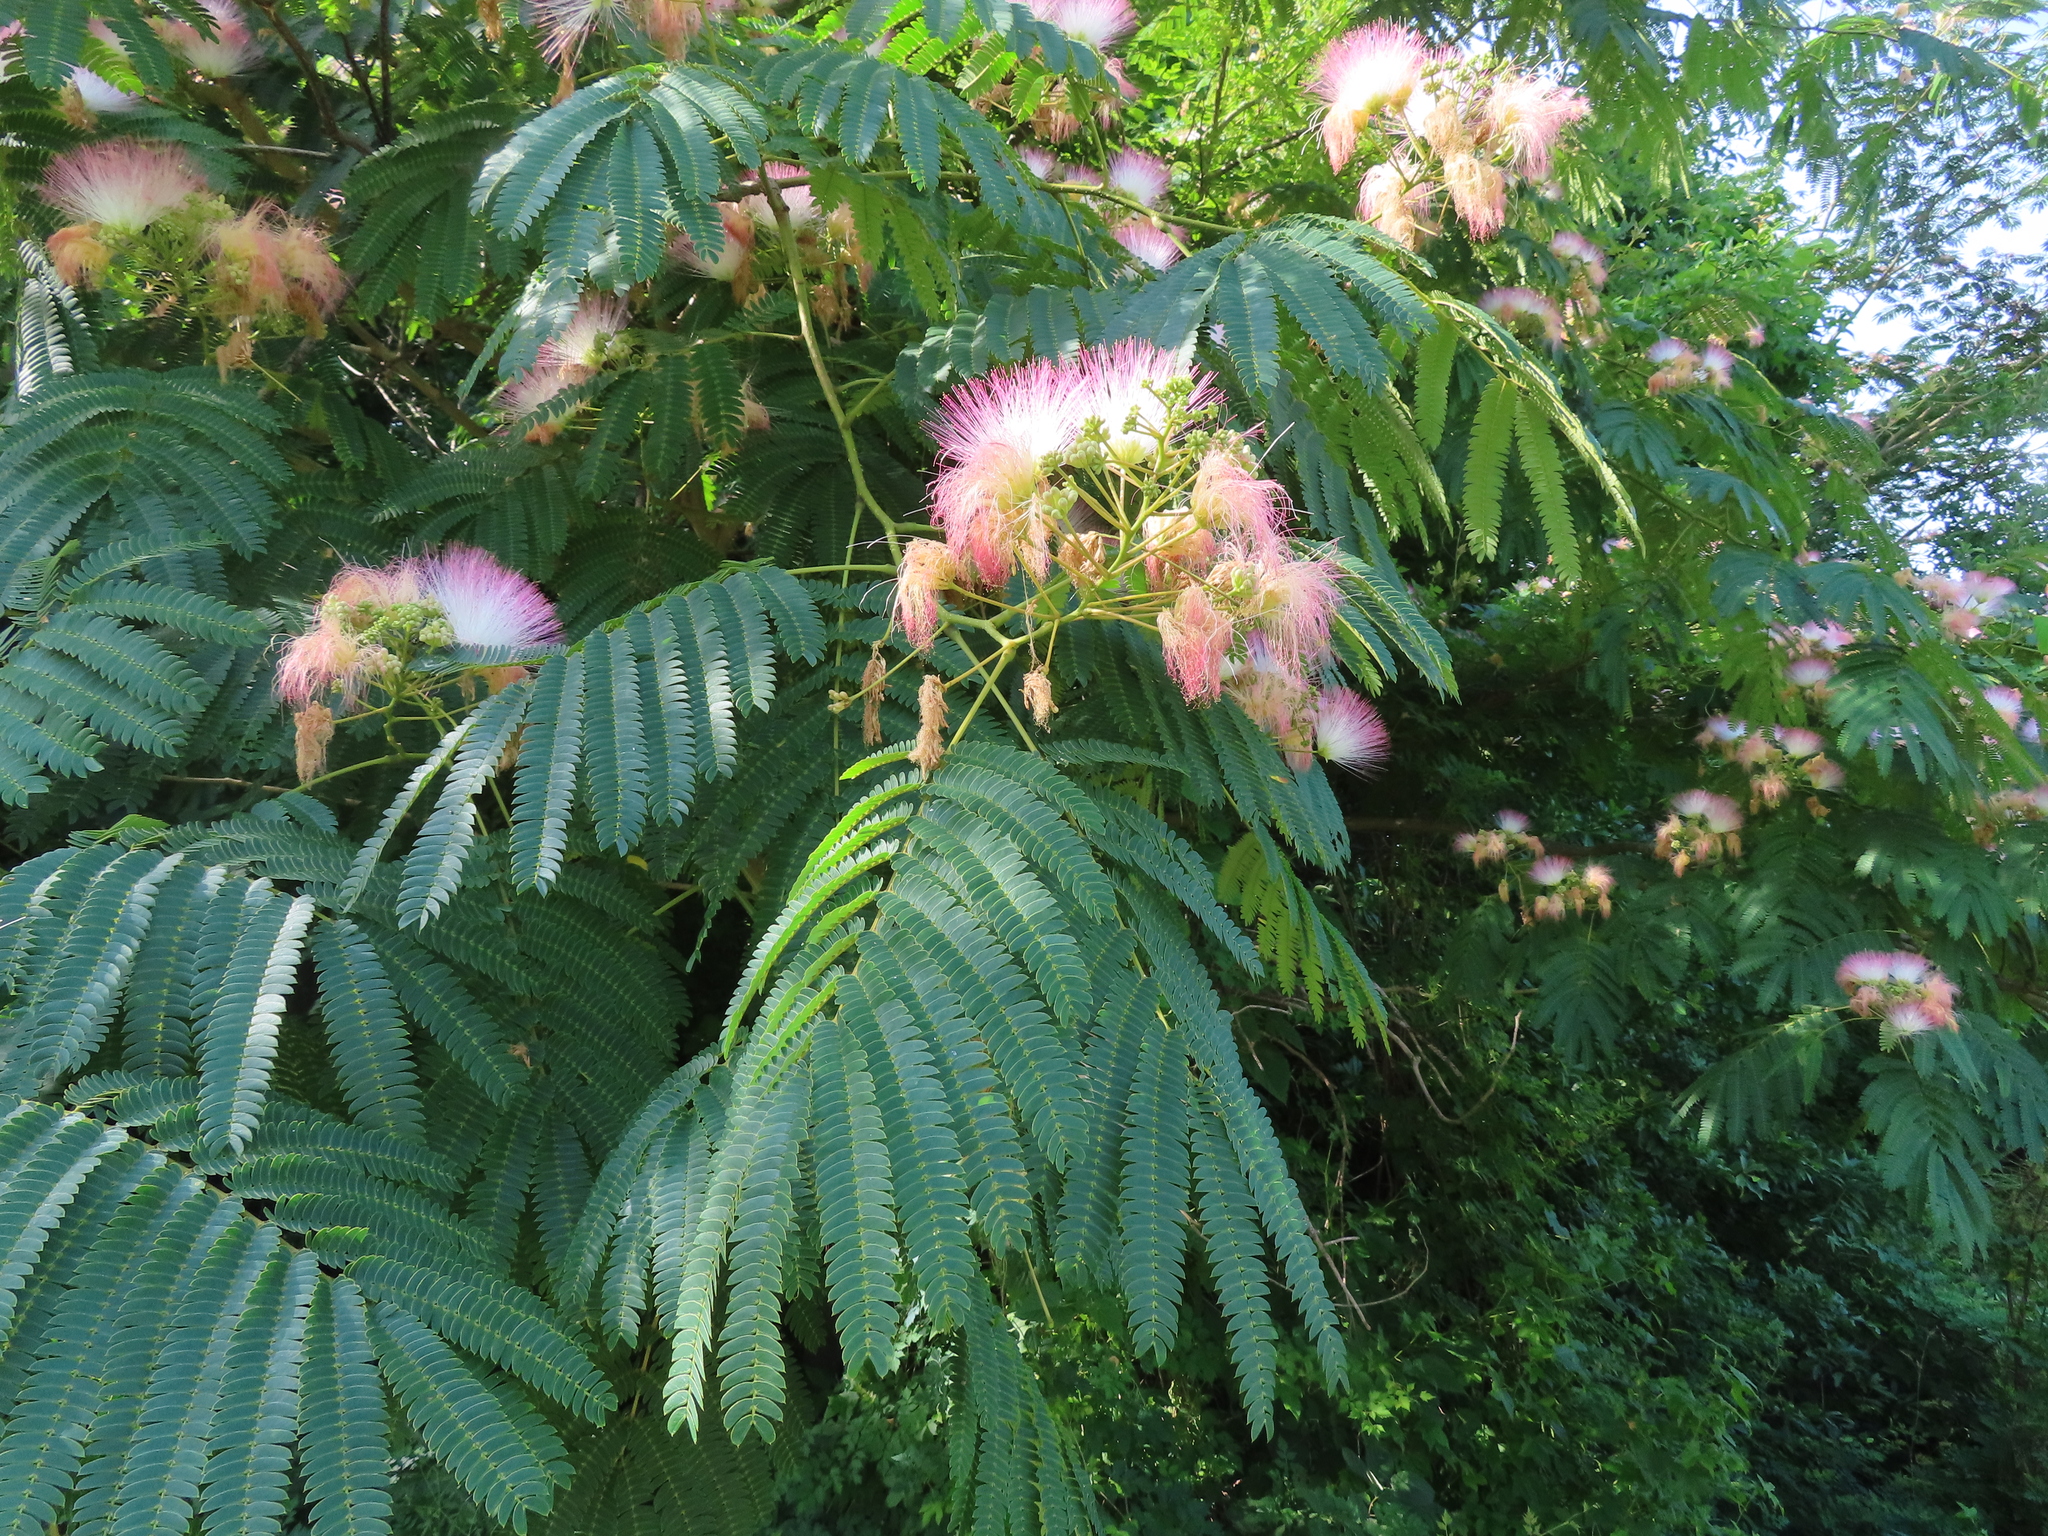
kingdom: Plantae
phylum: Tracheophyta
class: Magnoliopsida
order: Fabales
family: Fabaceae
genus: Albizia
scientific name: Albizia julibrissin
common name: Silktree
